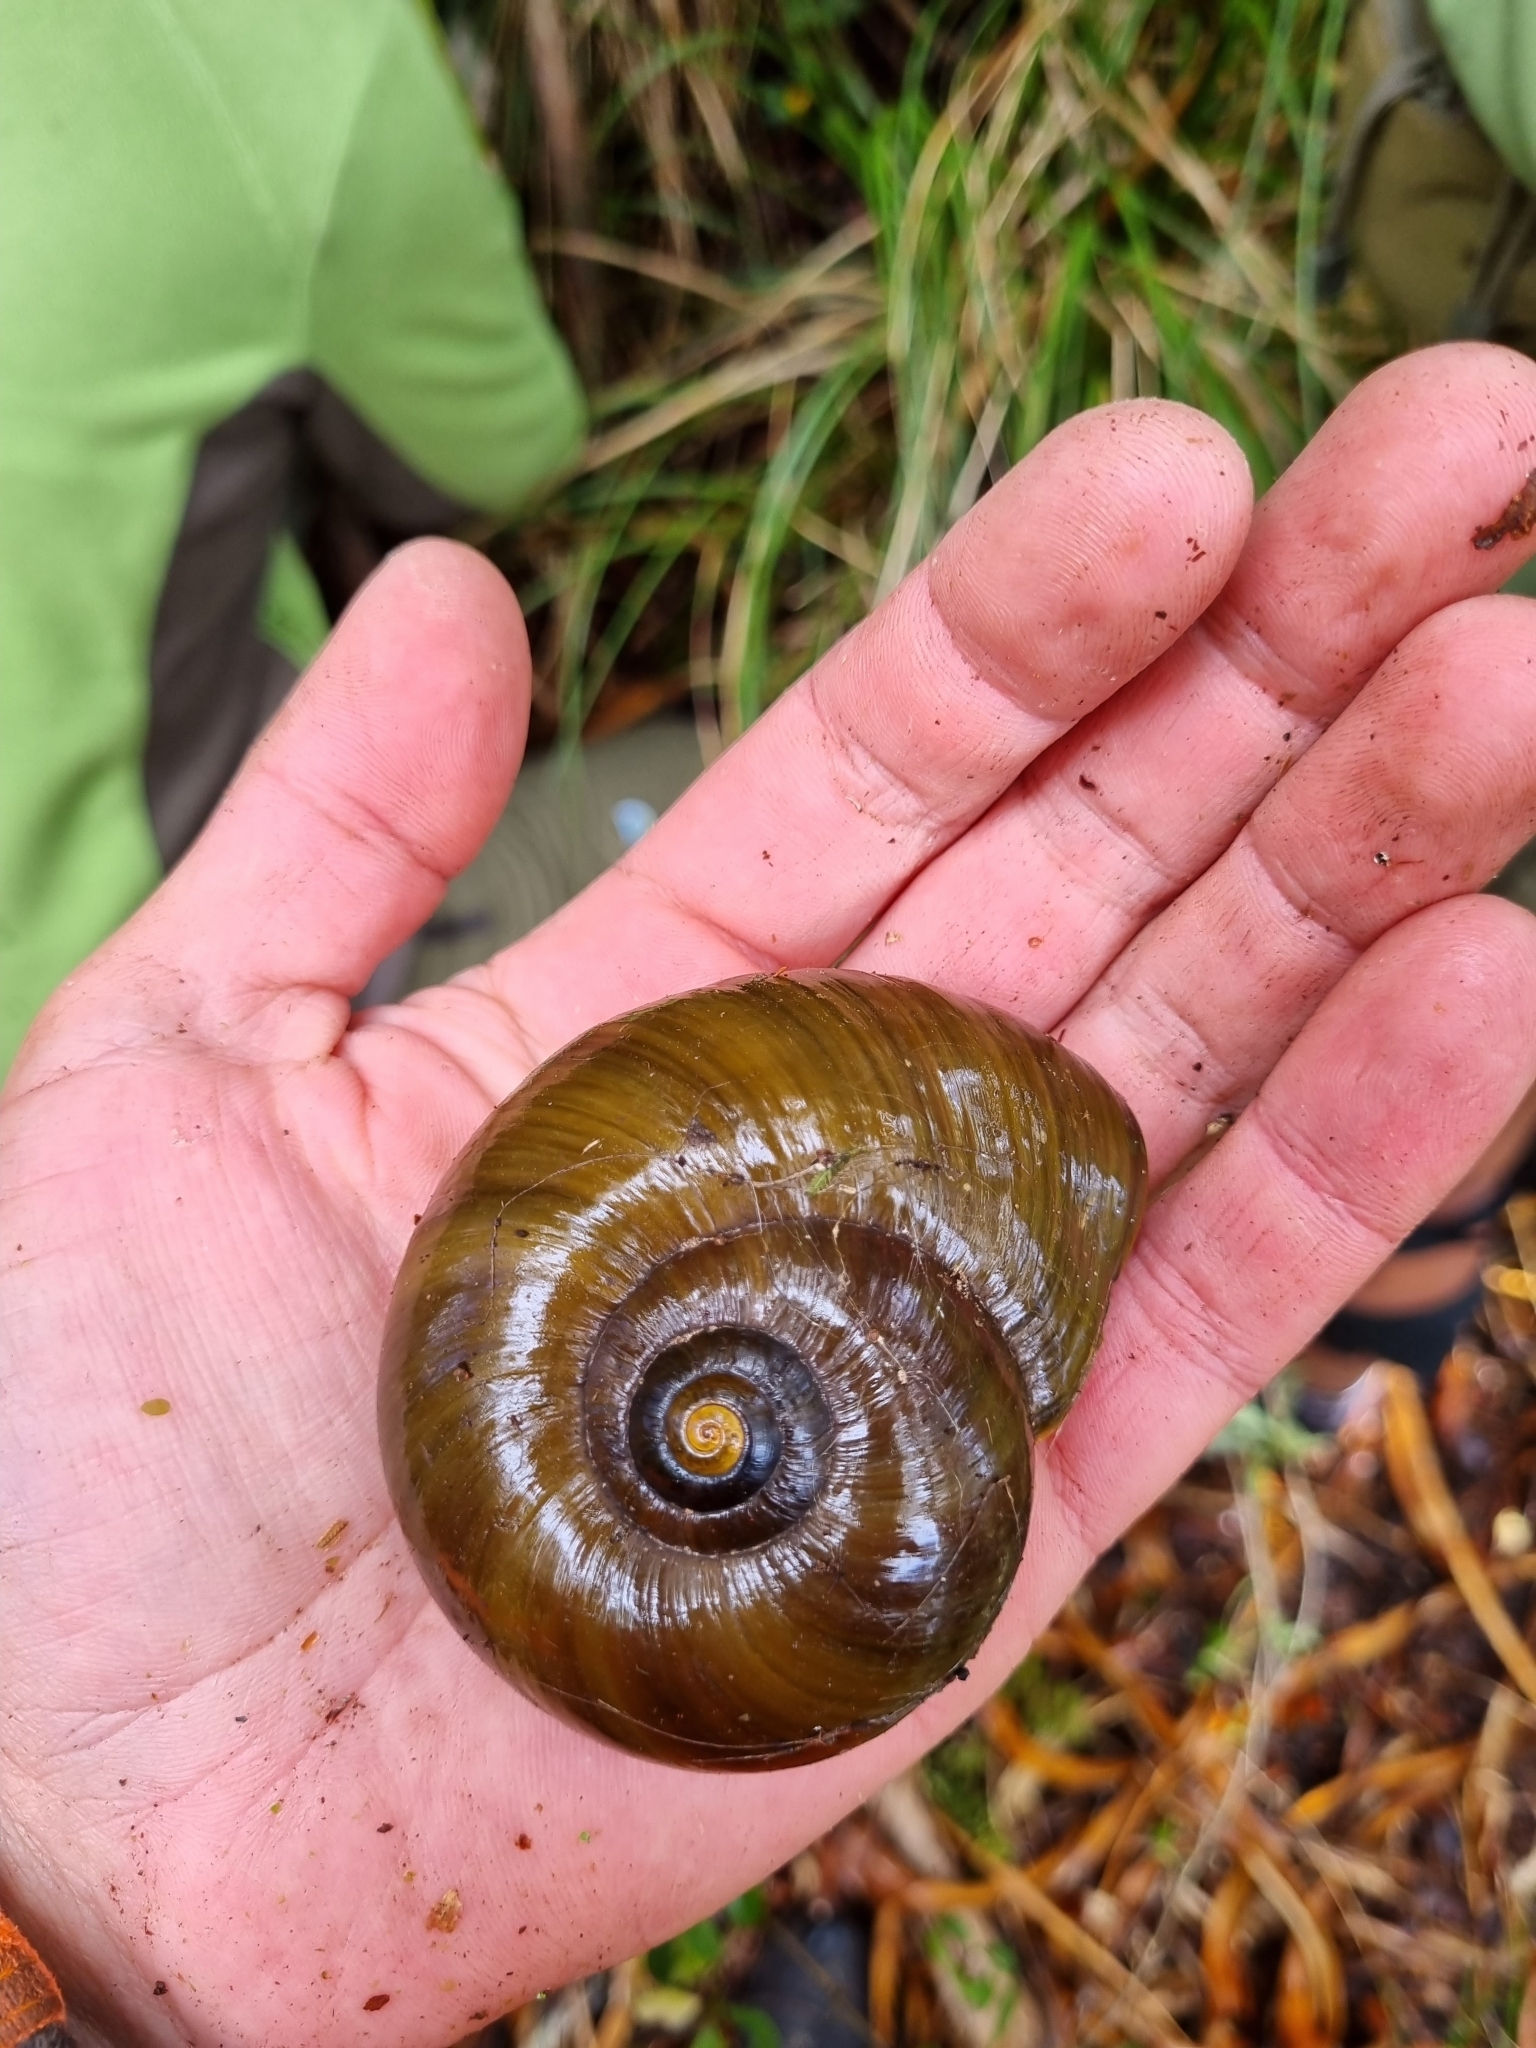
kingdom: Animalia
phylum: Mollusca
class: Gastropoda
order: Stylommatophora
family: Rhytididae
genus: Powelliphanta
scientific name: Powelliphanta superba
